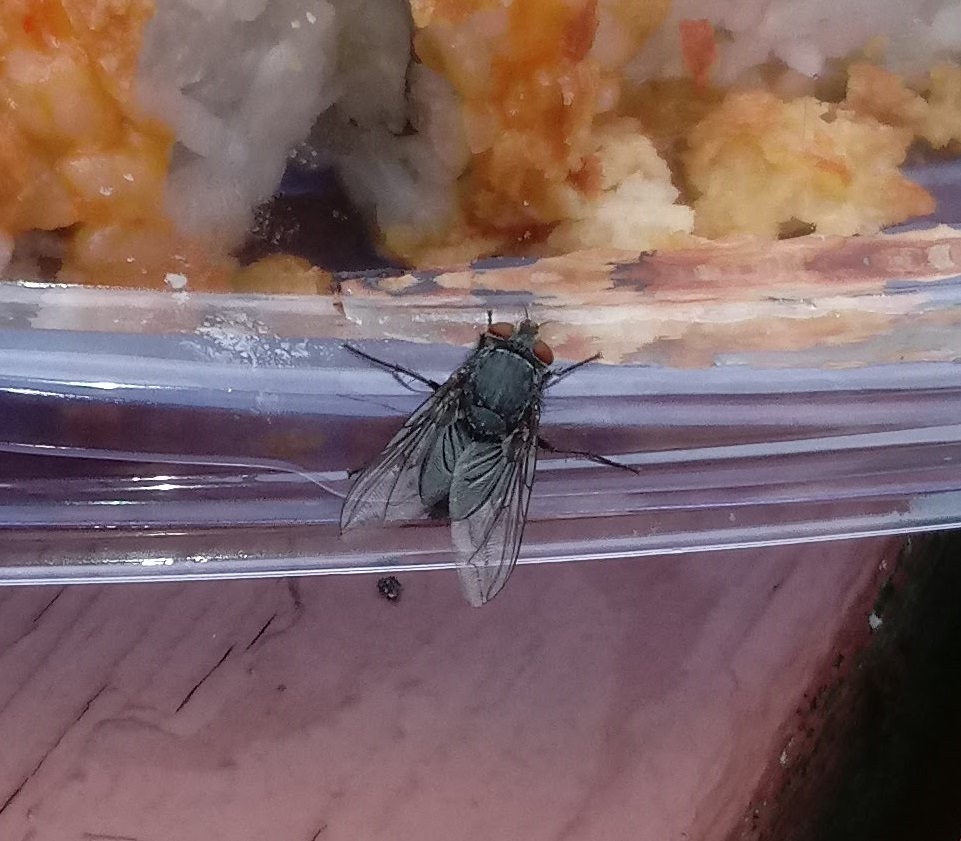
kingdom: Animalia
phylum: Arthropoda
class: Insecta
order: Diptera
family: Calliphoridae
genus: Calliphora
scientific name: Calliphora vicina
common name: Common blow flie
